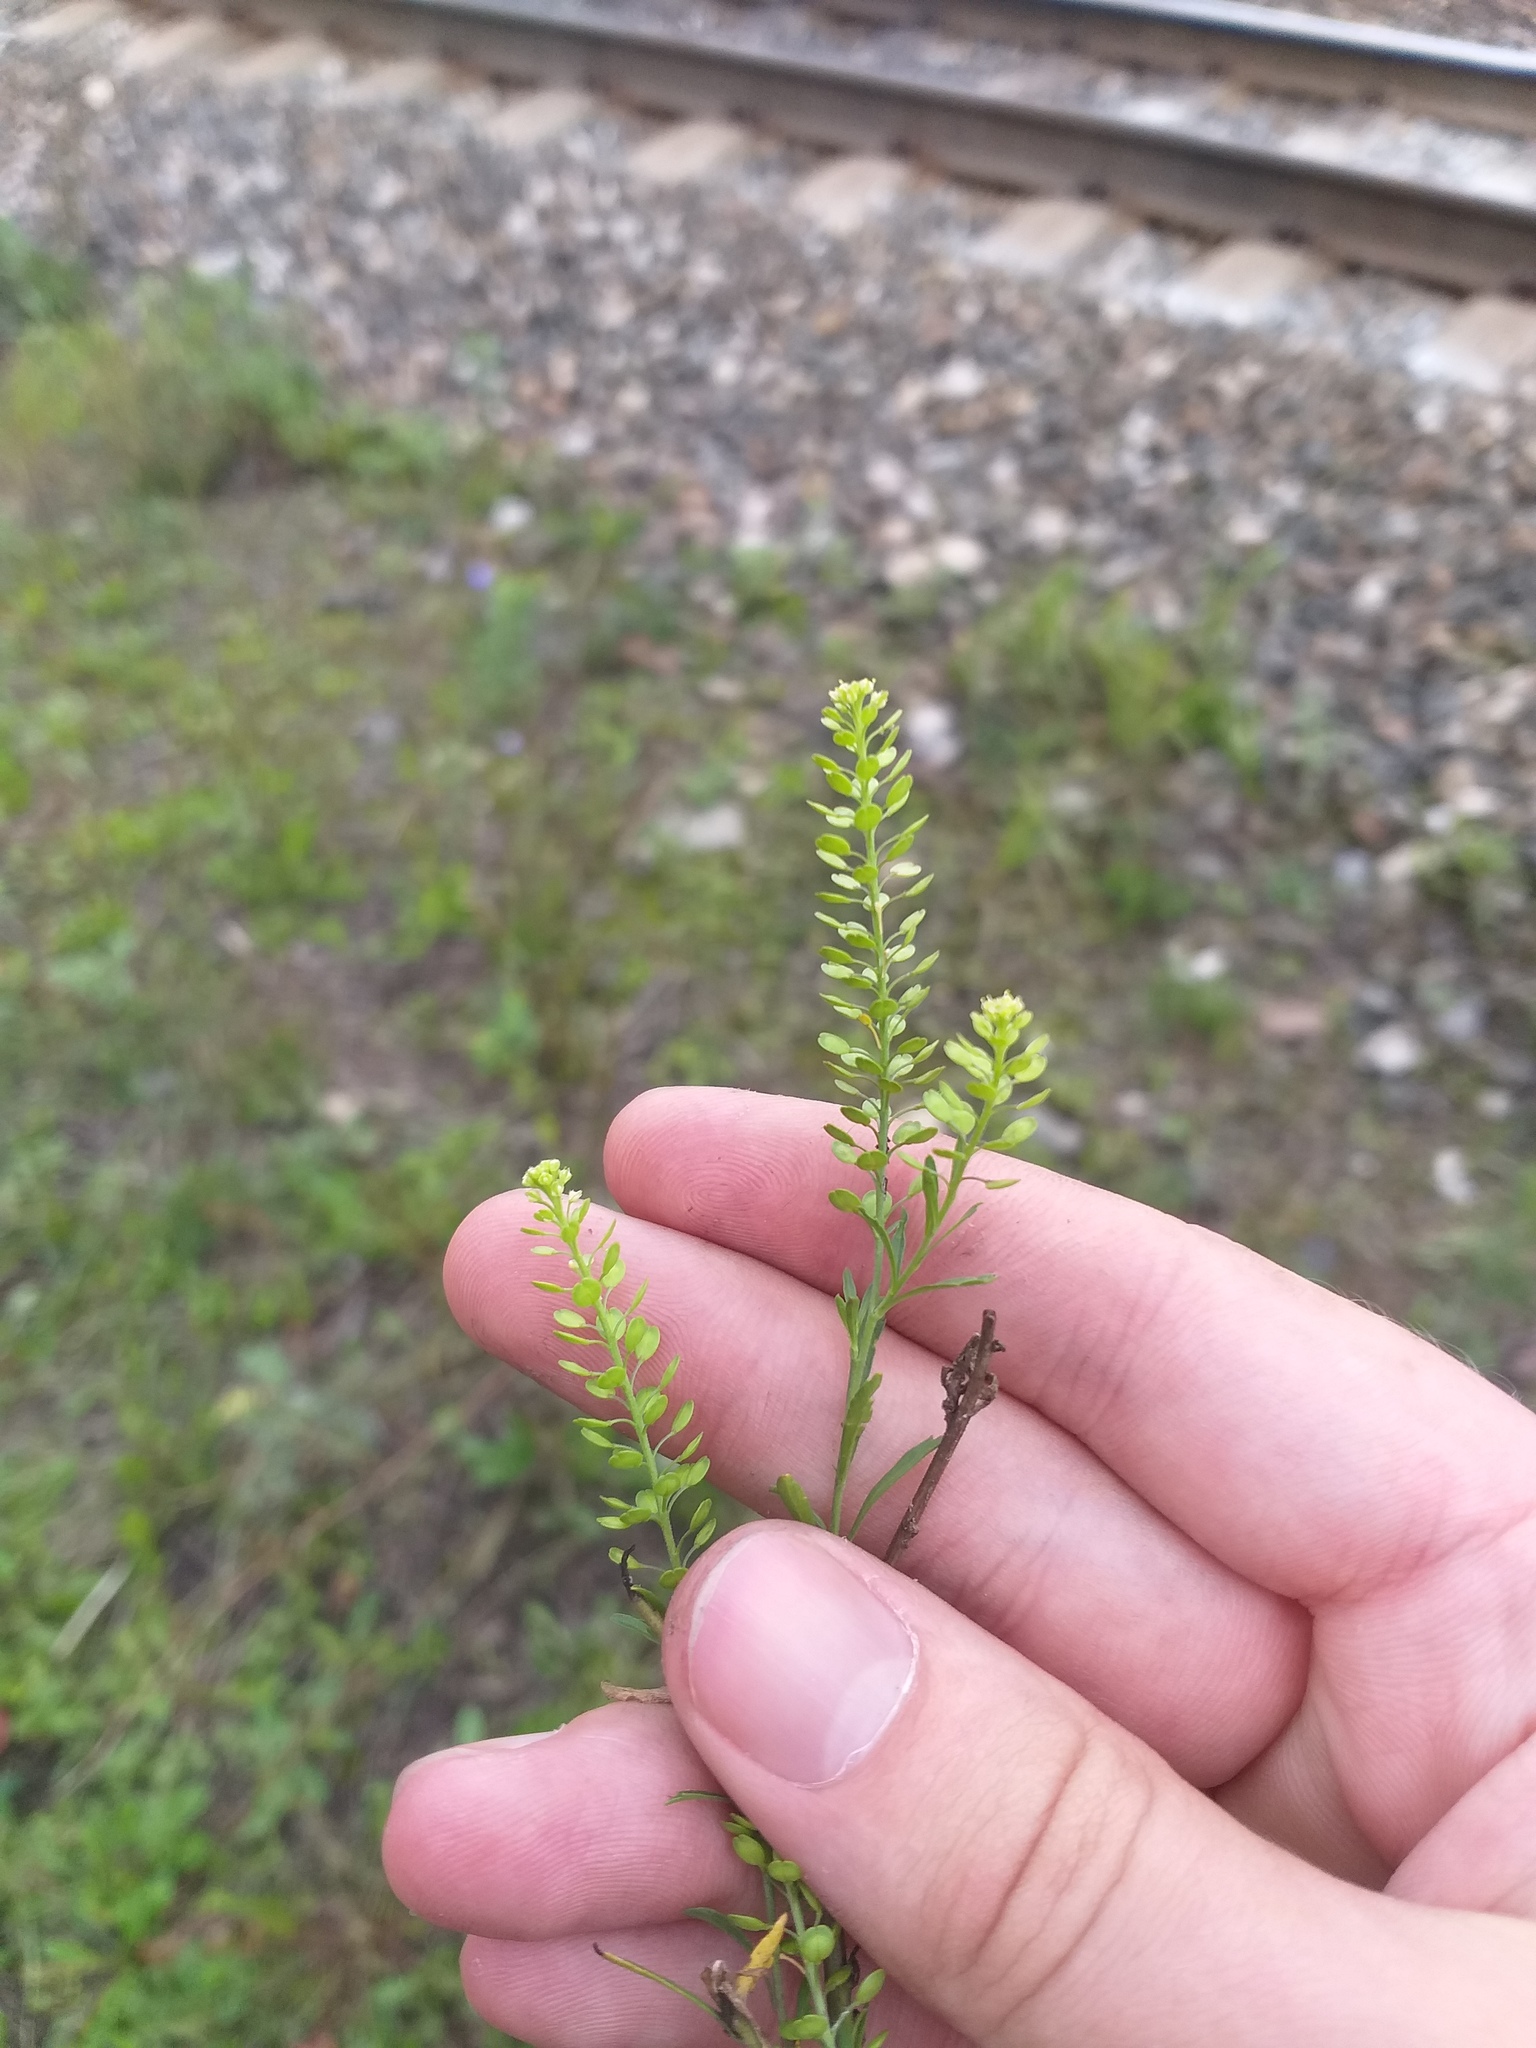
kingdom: Plantae
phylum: Tracheophyta
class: Magnoliopsida
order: Brassicales
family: Brassicaceae
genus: Lepidium
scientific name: Lepidium densiflorum
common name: Miner's pepperwort
